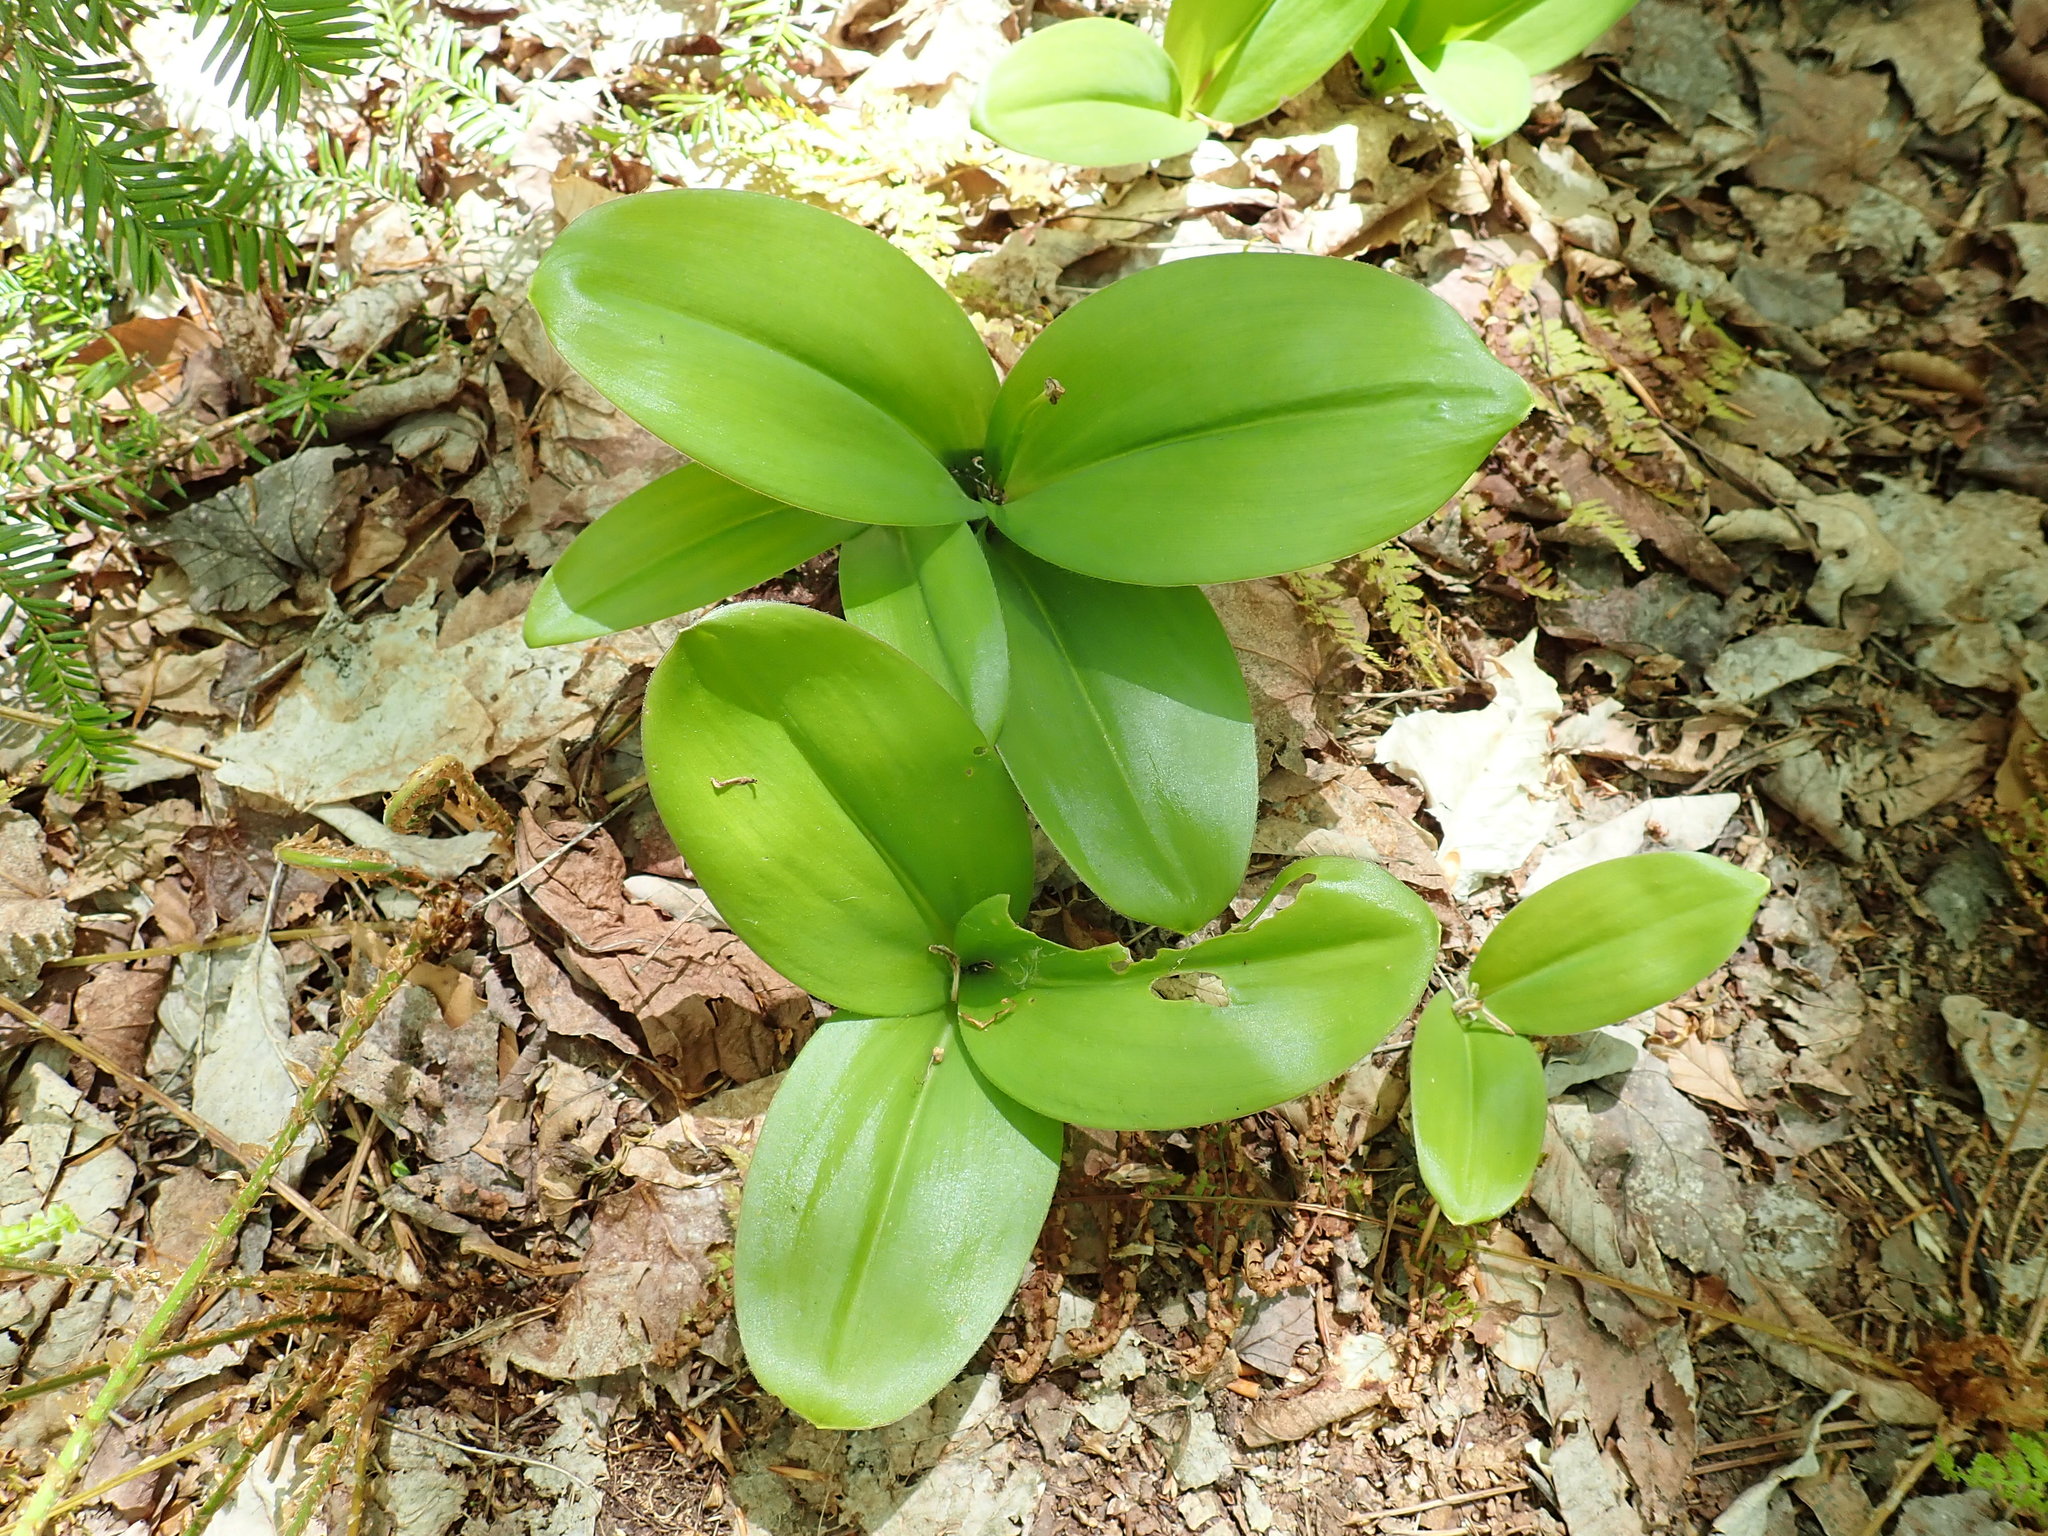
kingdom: Plantae
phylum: Tracheophyta
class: Liliopsida
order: Liliales
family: Liliaceae
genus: Clintonia
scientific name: Clintonia borealis
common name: Yellow clintonia
